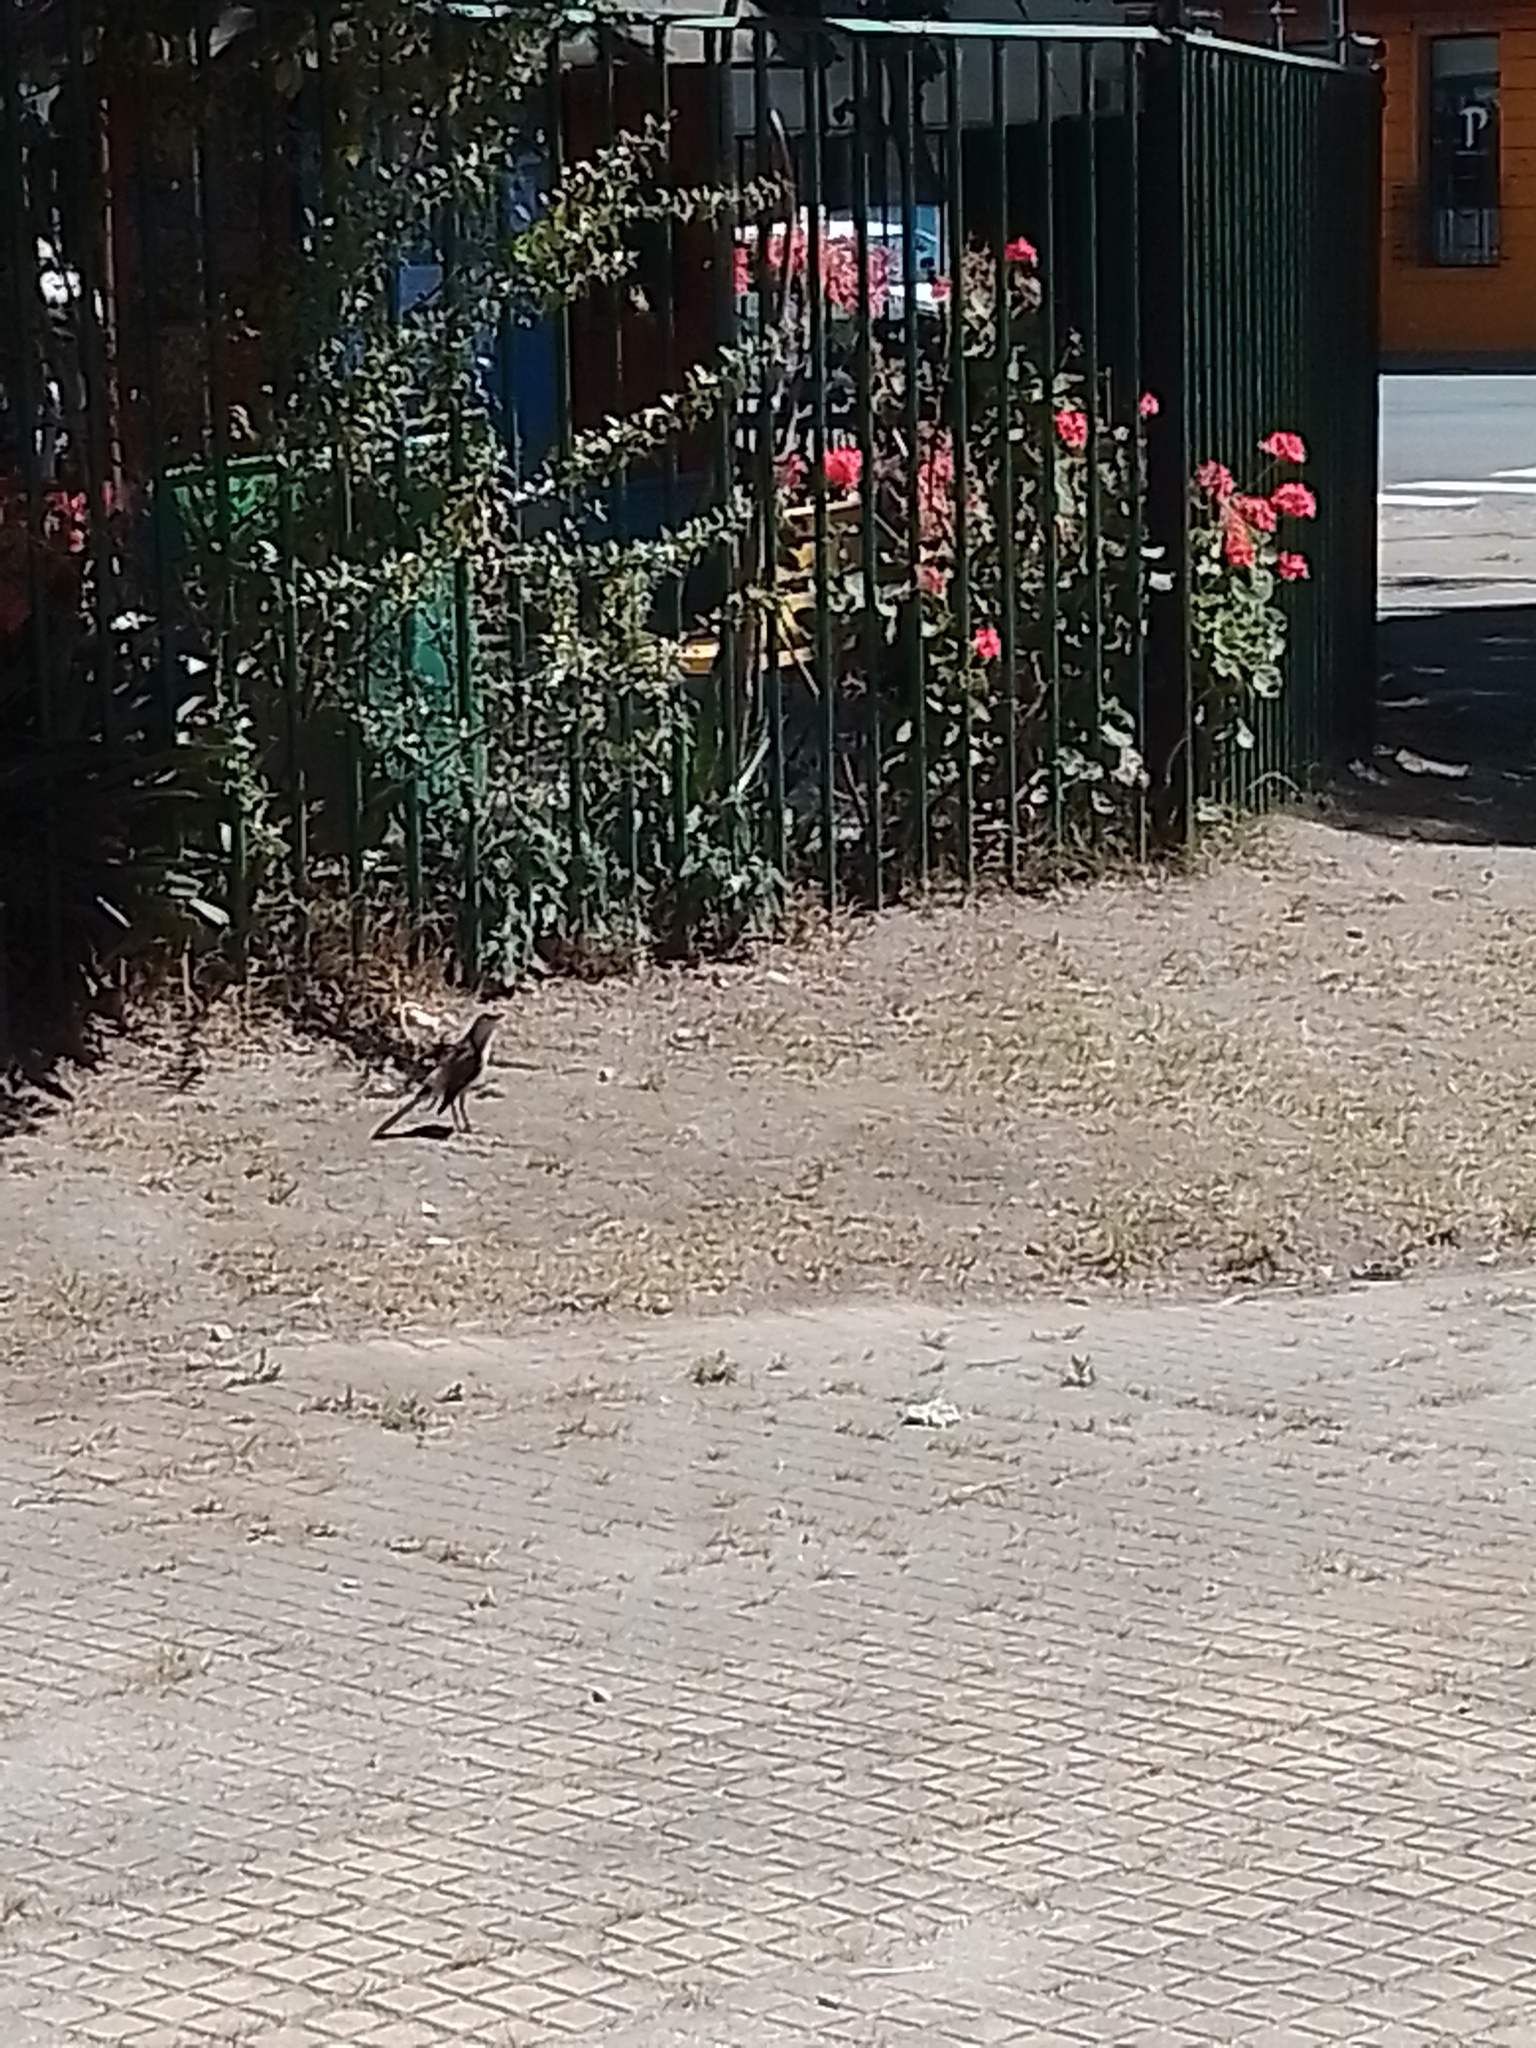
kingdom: Animalia
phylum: Chordata
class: Aves
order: Passeriformes
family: Mimidae
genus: Mimus
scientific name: Mimus saturninus
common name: Chalk-browed mockingbird
